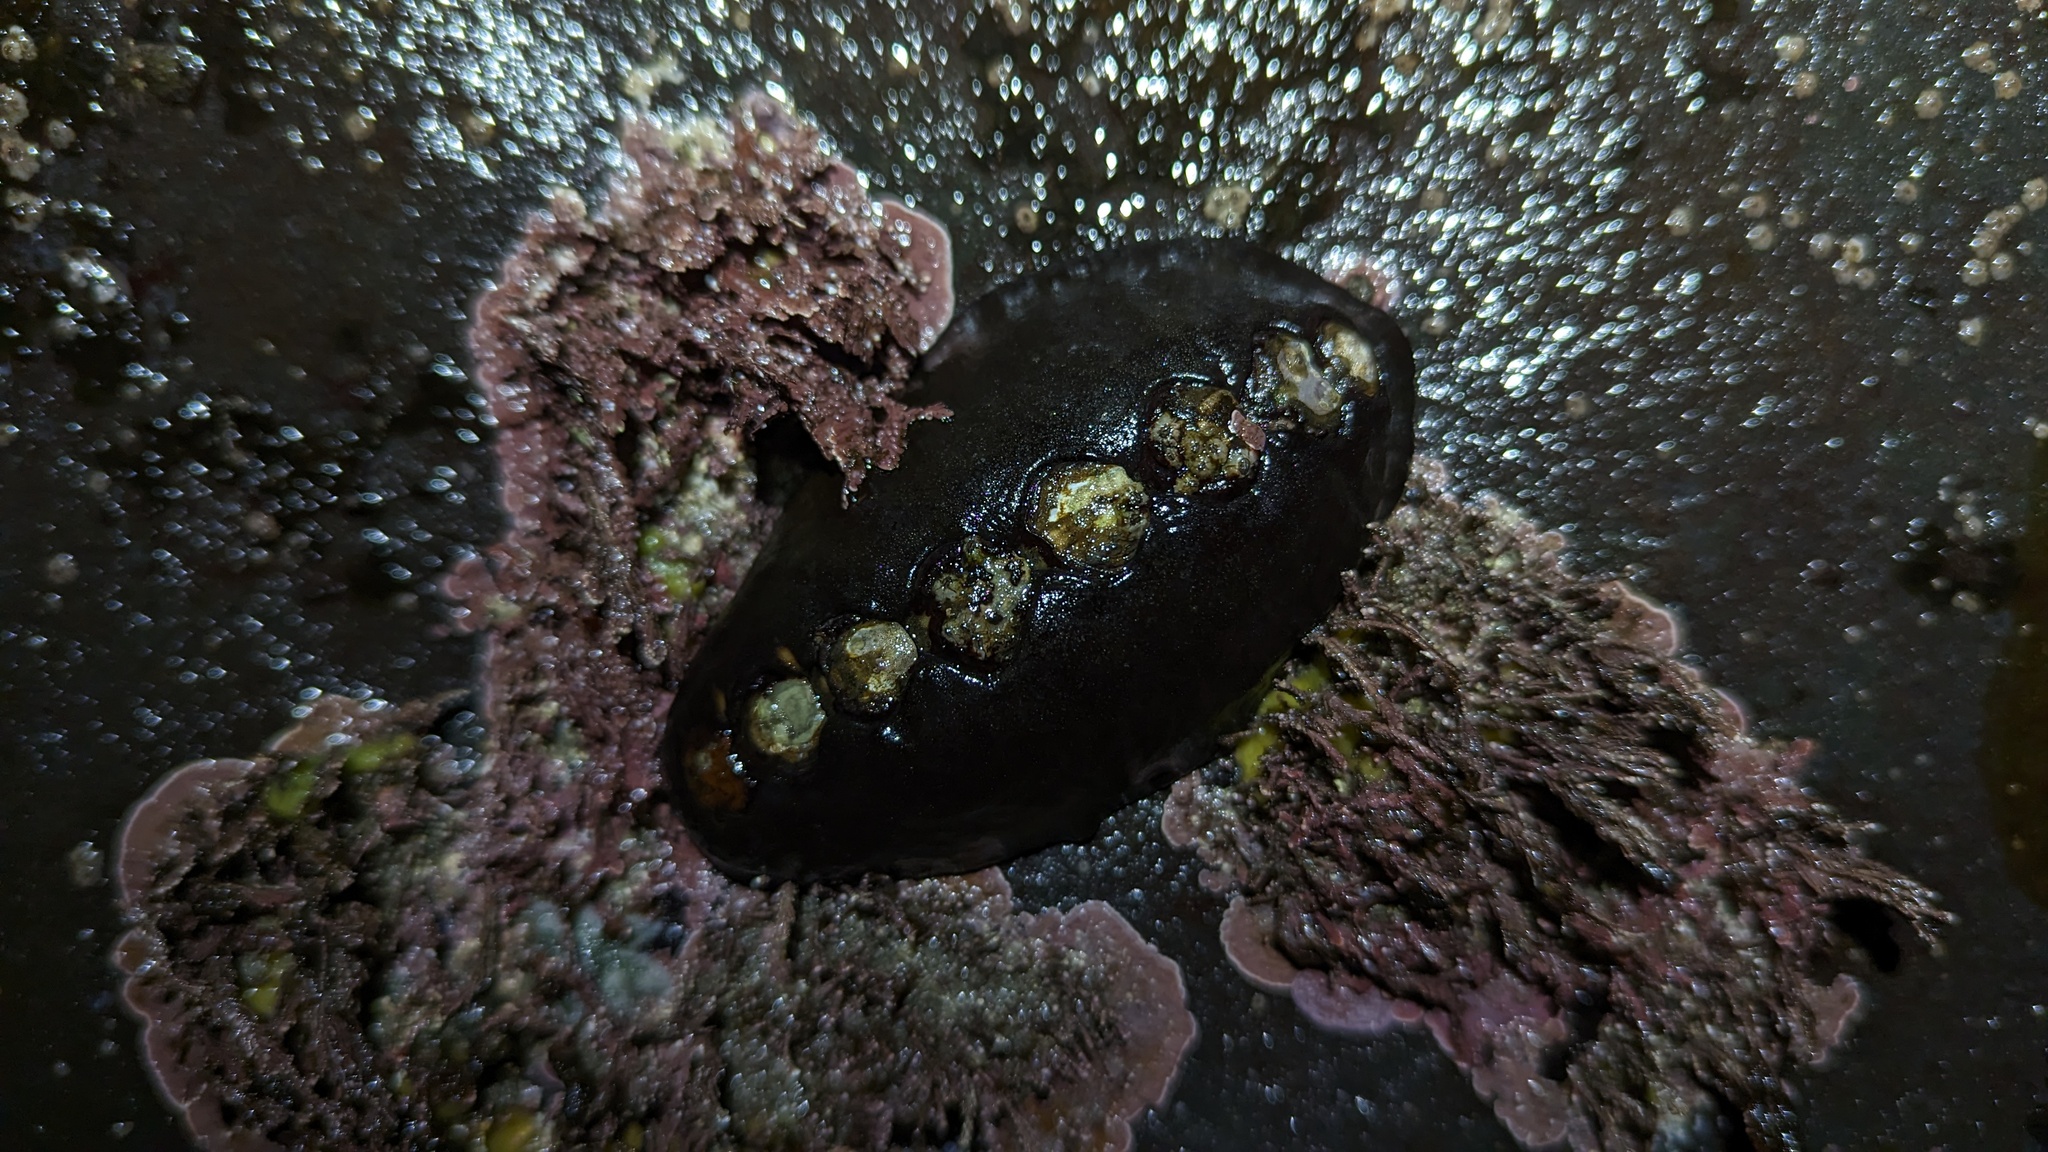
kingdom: Animalia
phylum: Mollusca
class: Polyplacophora
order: Chitonida
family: Mopaliidae
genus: Katharina
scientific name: Katharina tunicata
